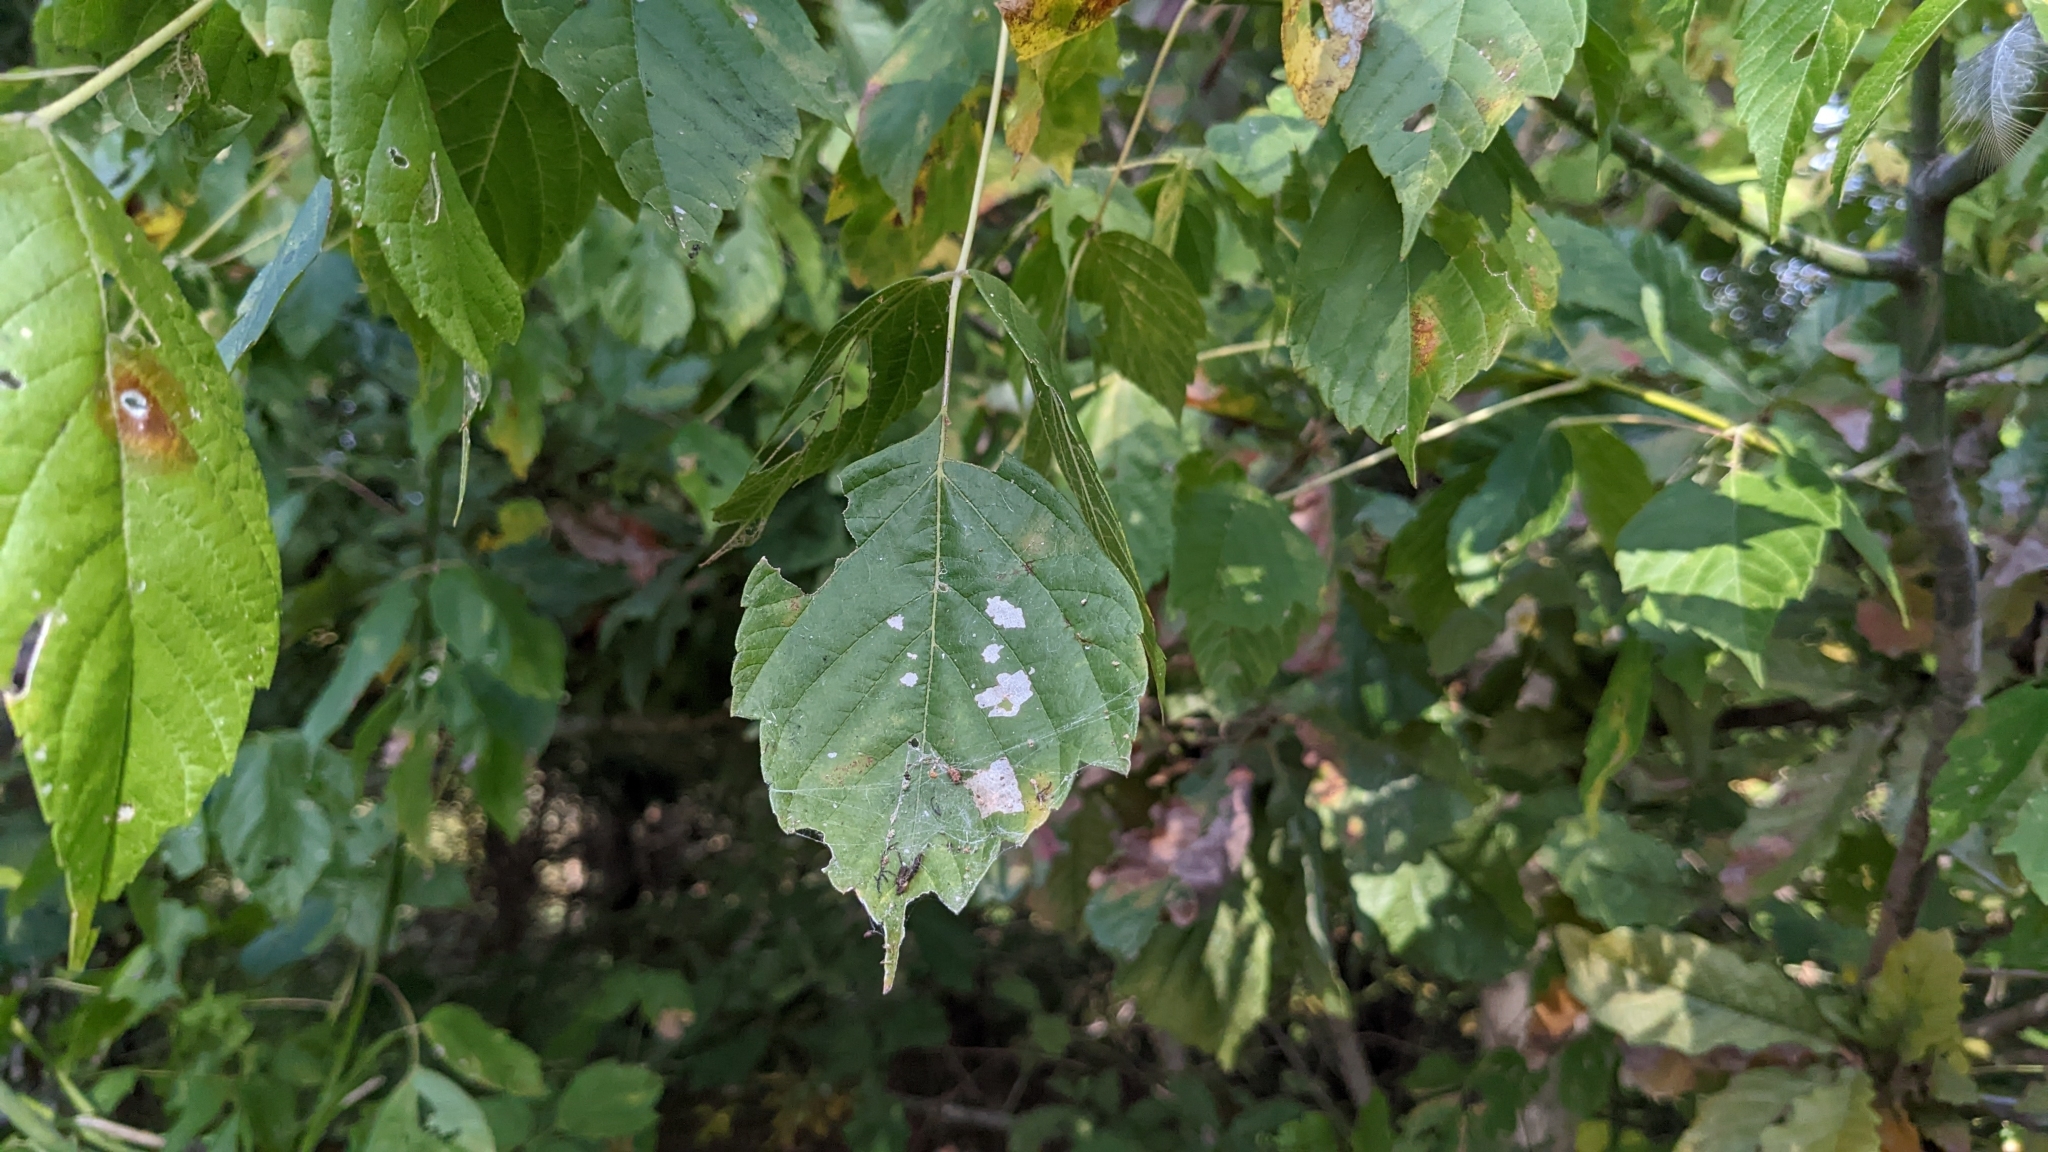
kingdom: Plantae
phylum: Tracheophyta
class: Magnoliopsida
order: Sapindales
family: Sapindaceae
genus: Acer
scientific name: Acer negundo
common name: Ashleaf maple
